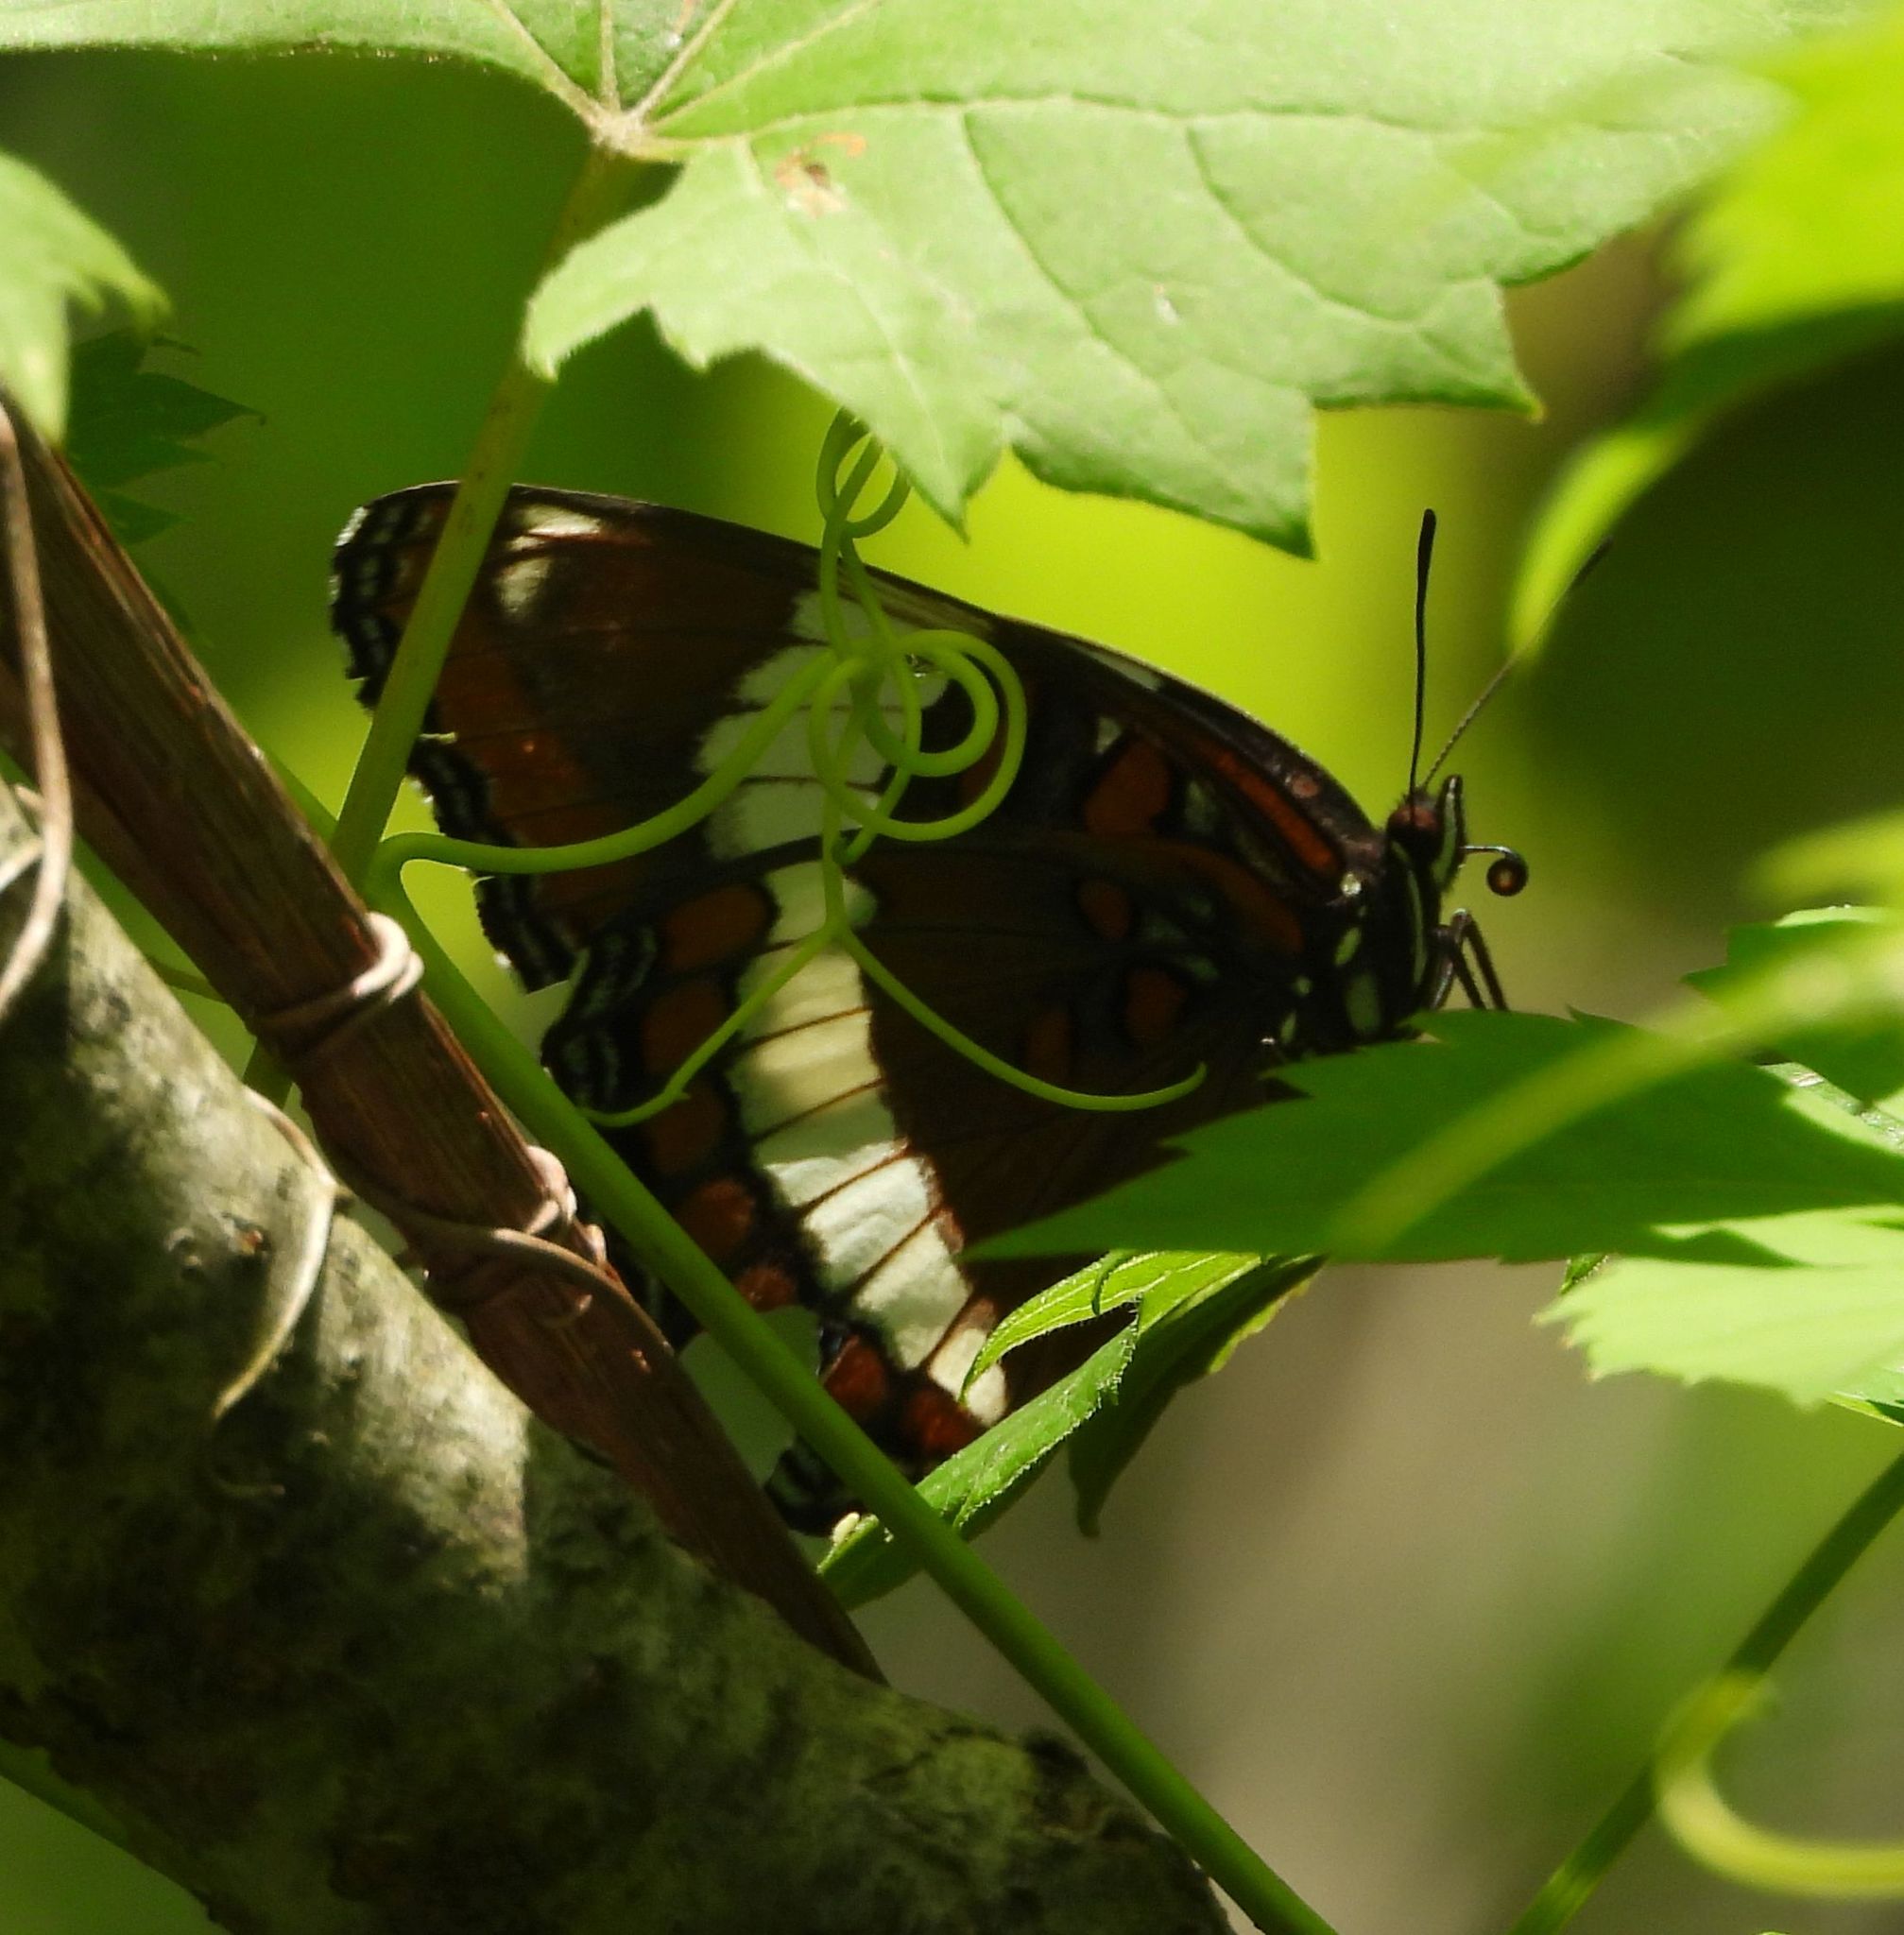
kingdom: Animalia
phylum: Arthropoda
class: Insecta
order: Lepidoptera
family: Nymphalidae
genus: Limenitis
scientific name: Limenitis arthemis
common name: Red-spotted admiral
